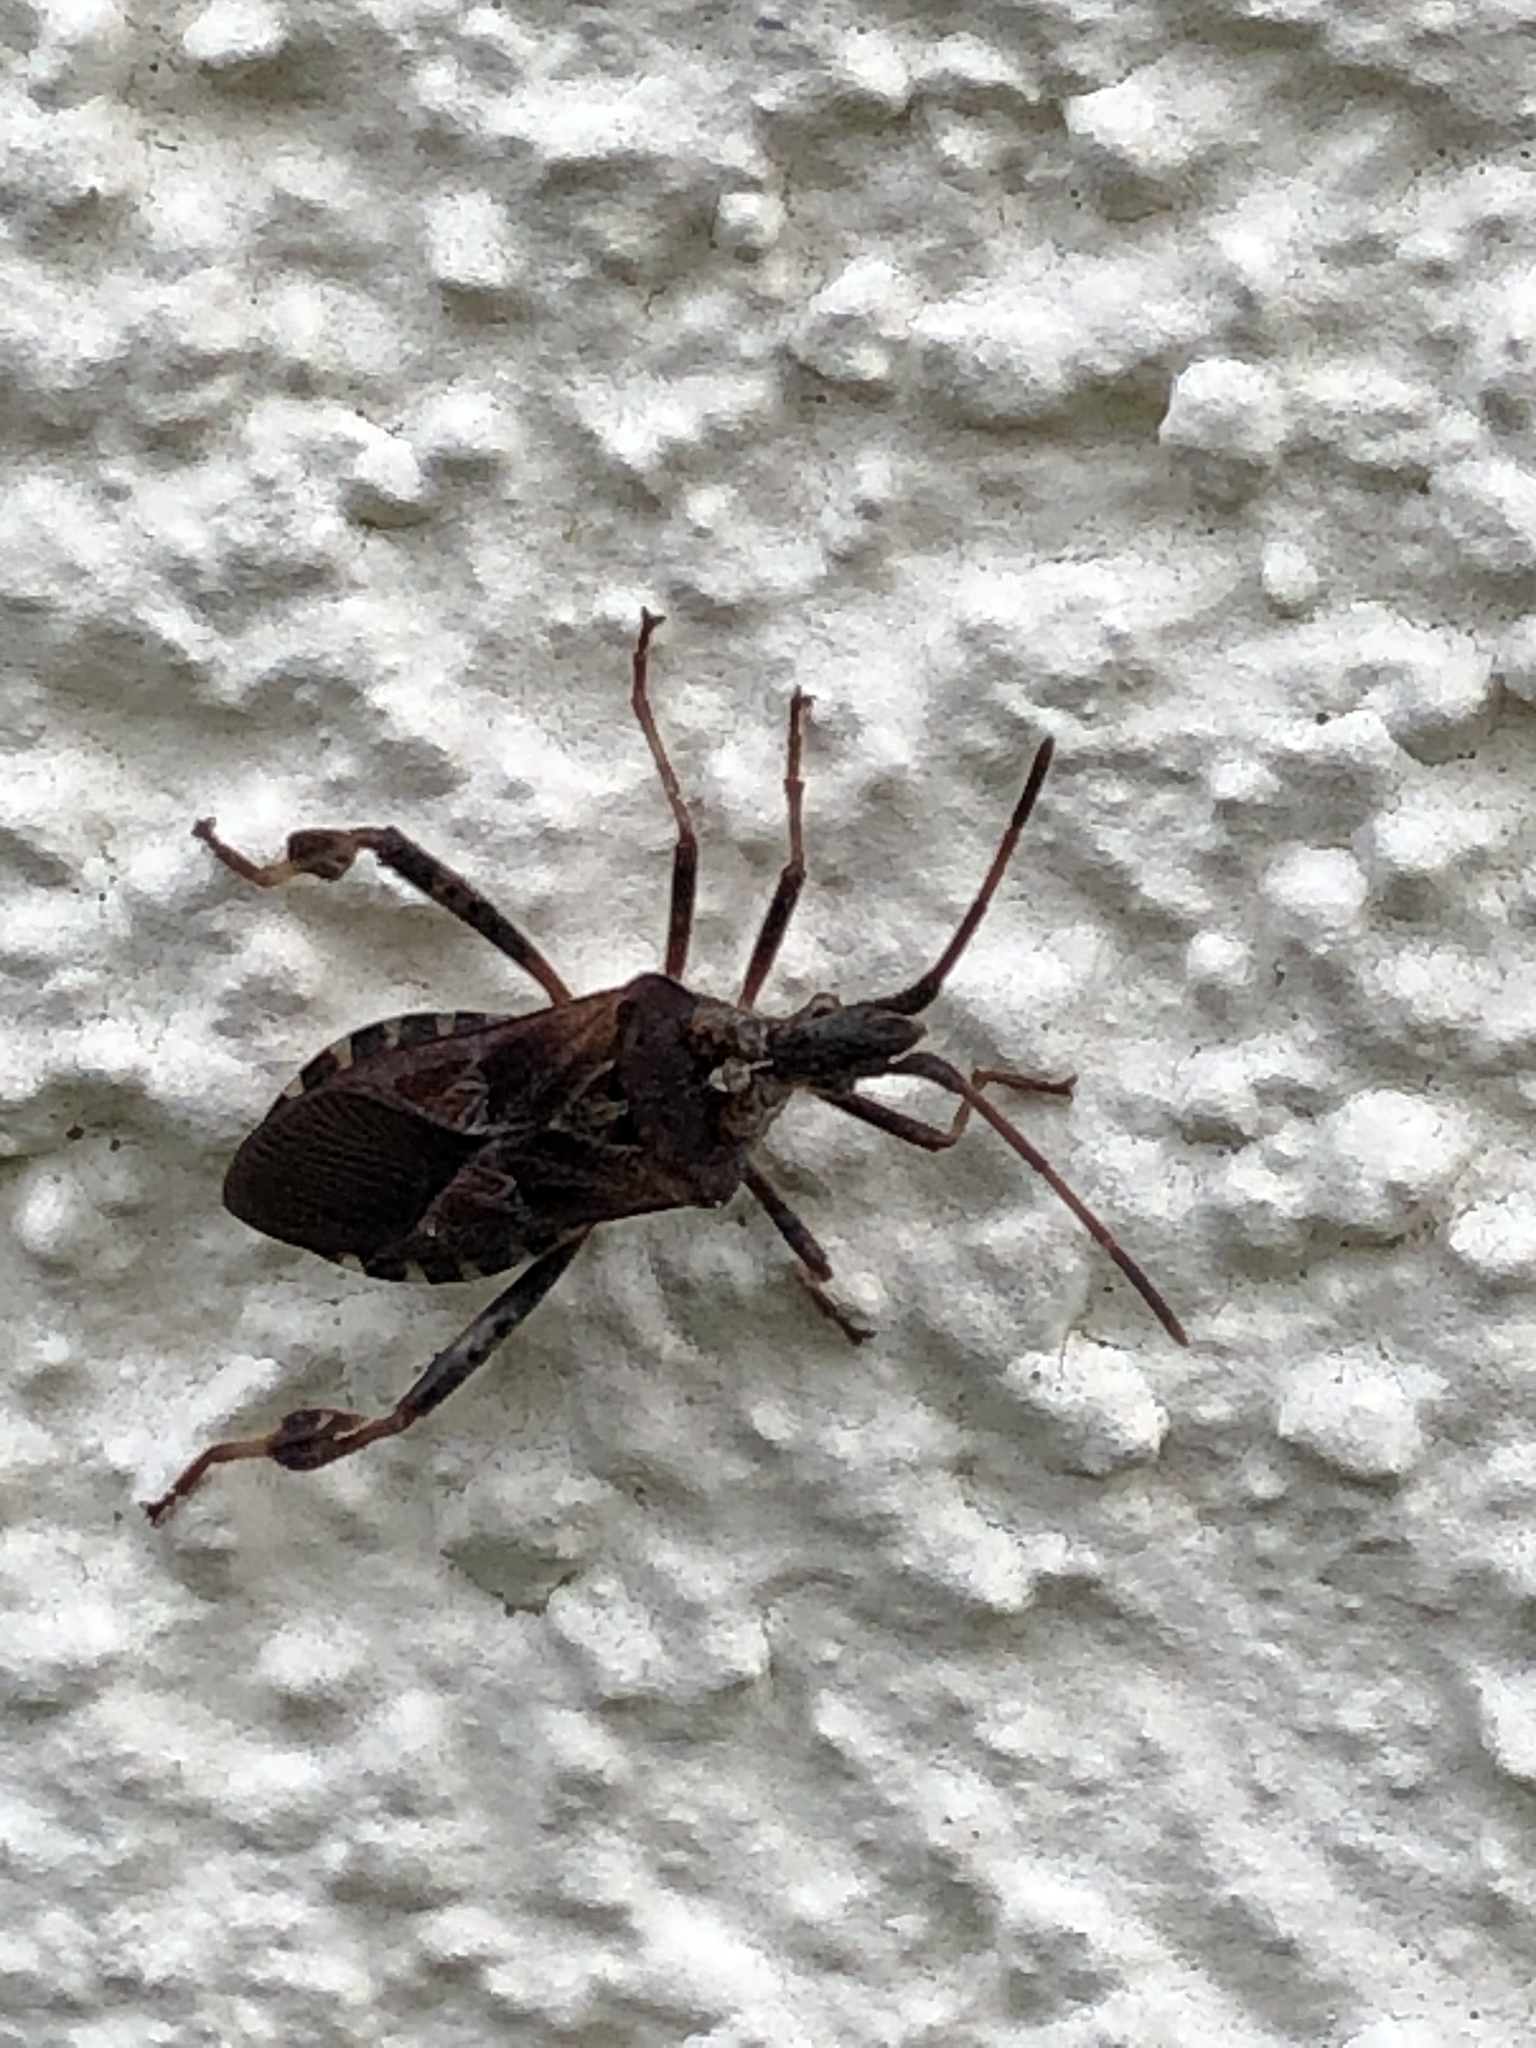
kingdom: Animalia
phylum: Arthropoda
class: Insecta
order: Hemiptera
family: Coreidae
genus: Leptoglossus
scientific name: Leptoglossus occidentalis
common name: Western conifer-seed bug
